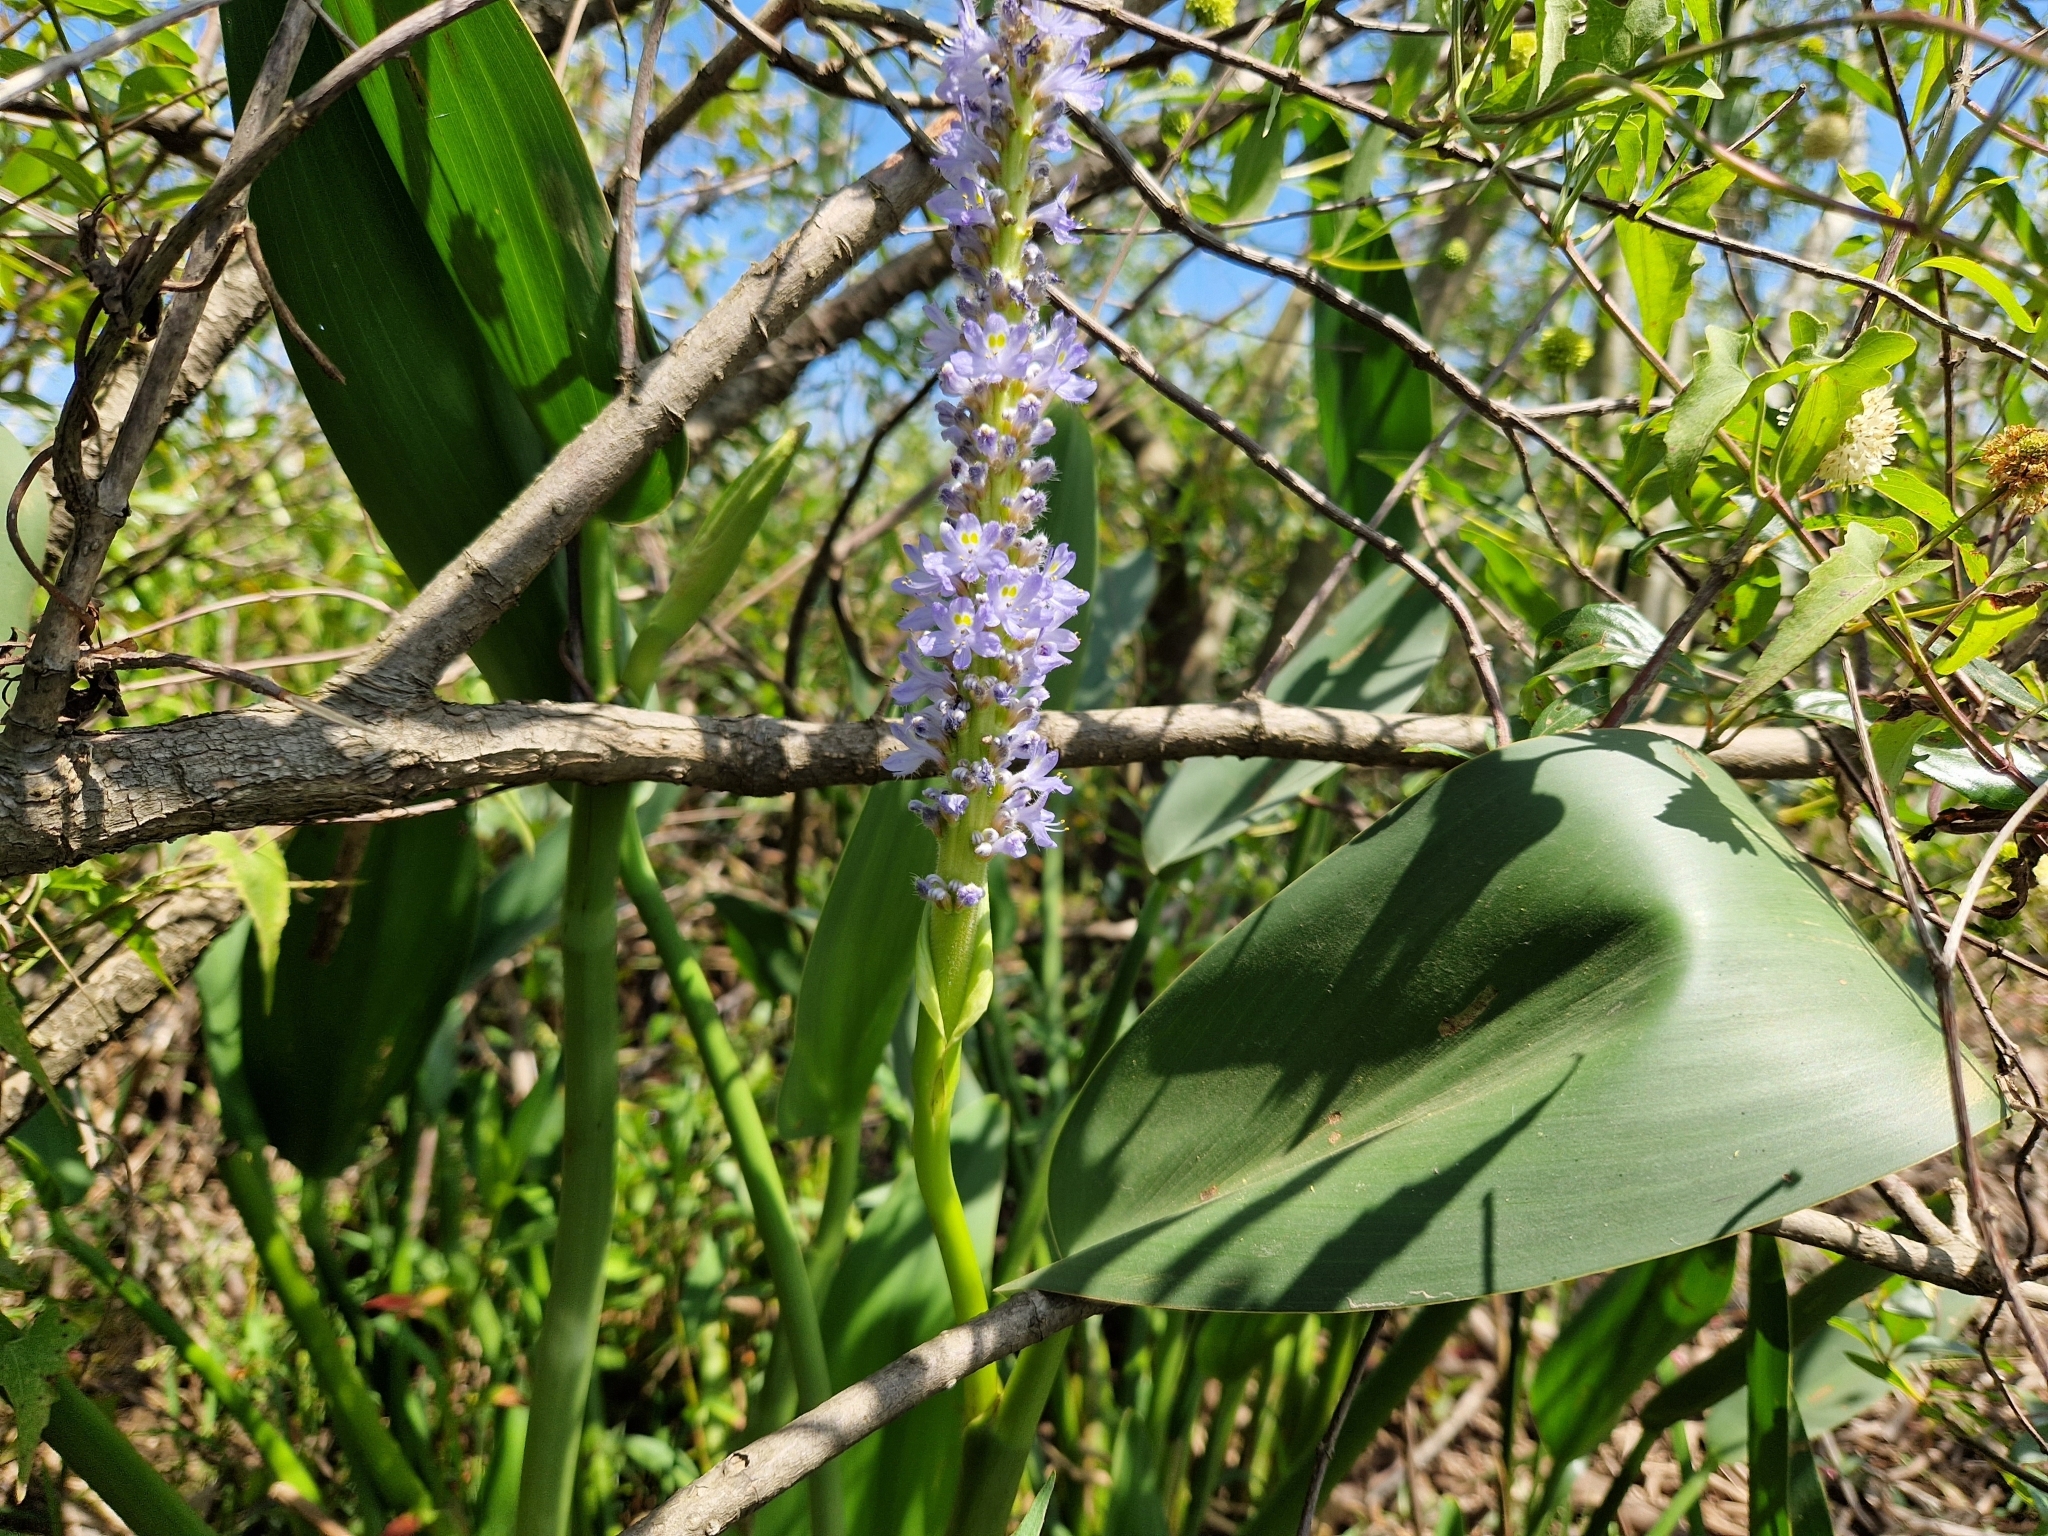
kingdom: Plantae
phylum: Tracheophyta
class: Liliopsida
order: Commelinales
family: Pontederiaceae
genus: Pontederia
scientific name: Pontederia cordata
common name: Pickerelweed
